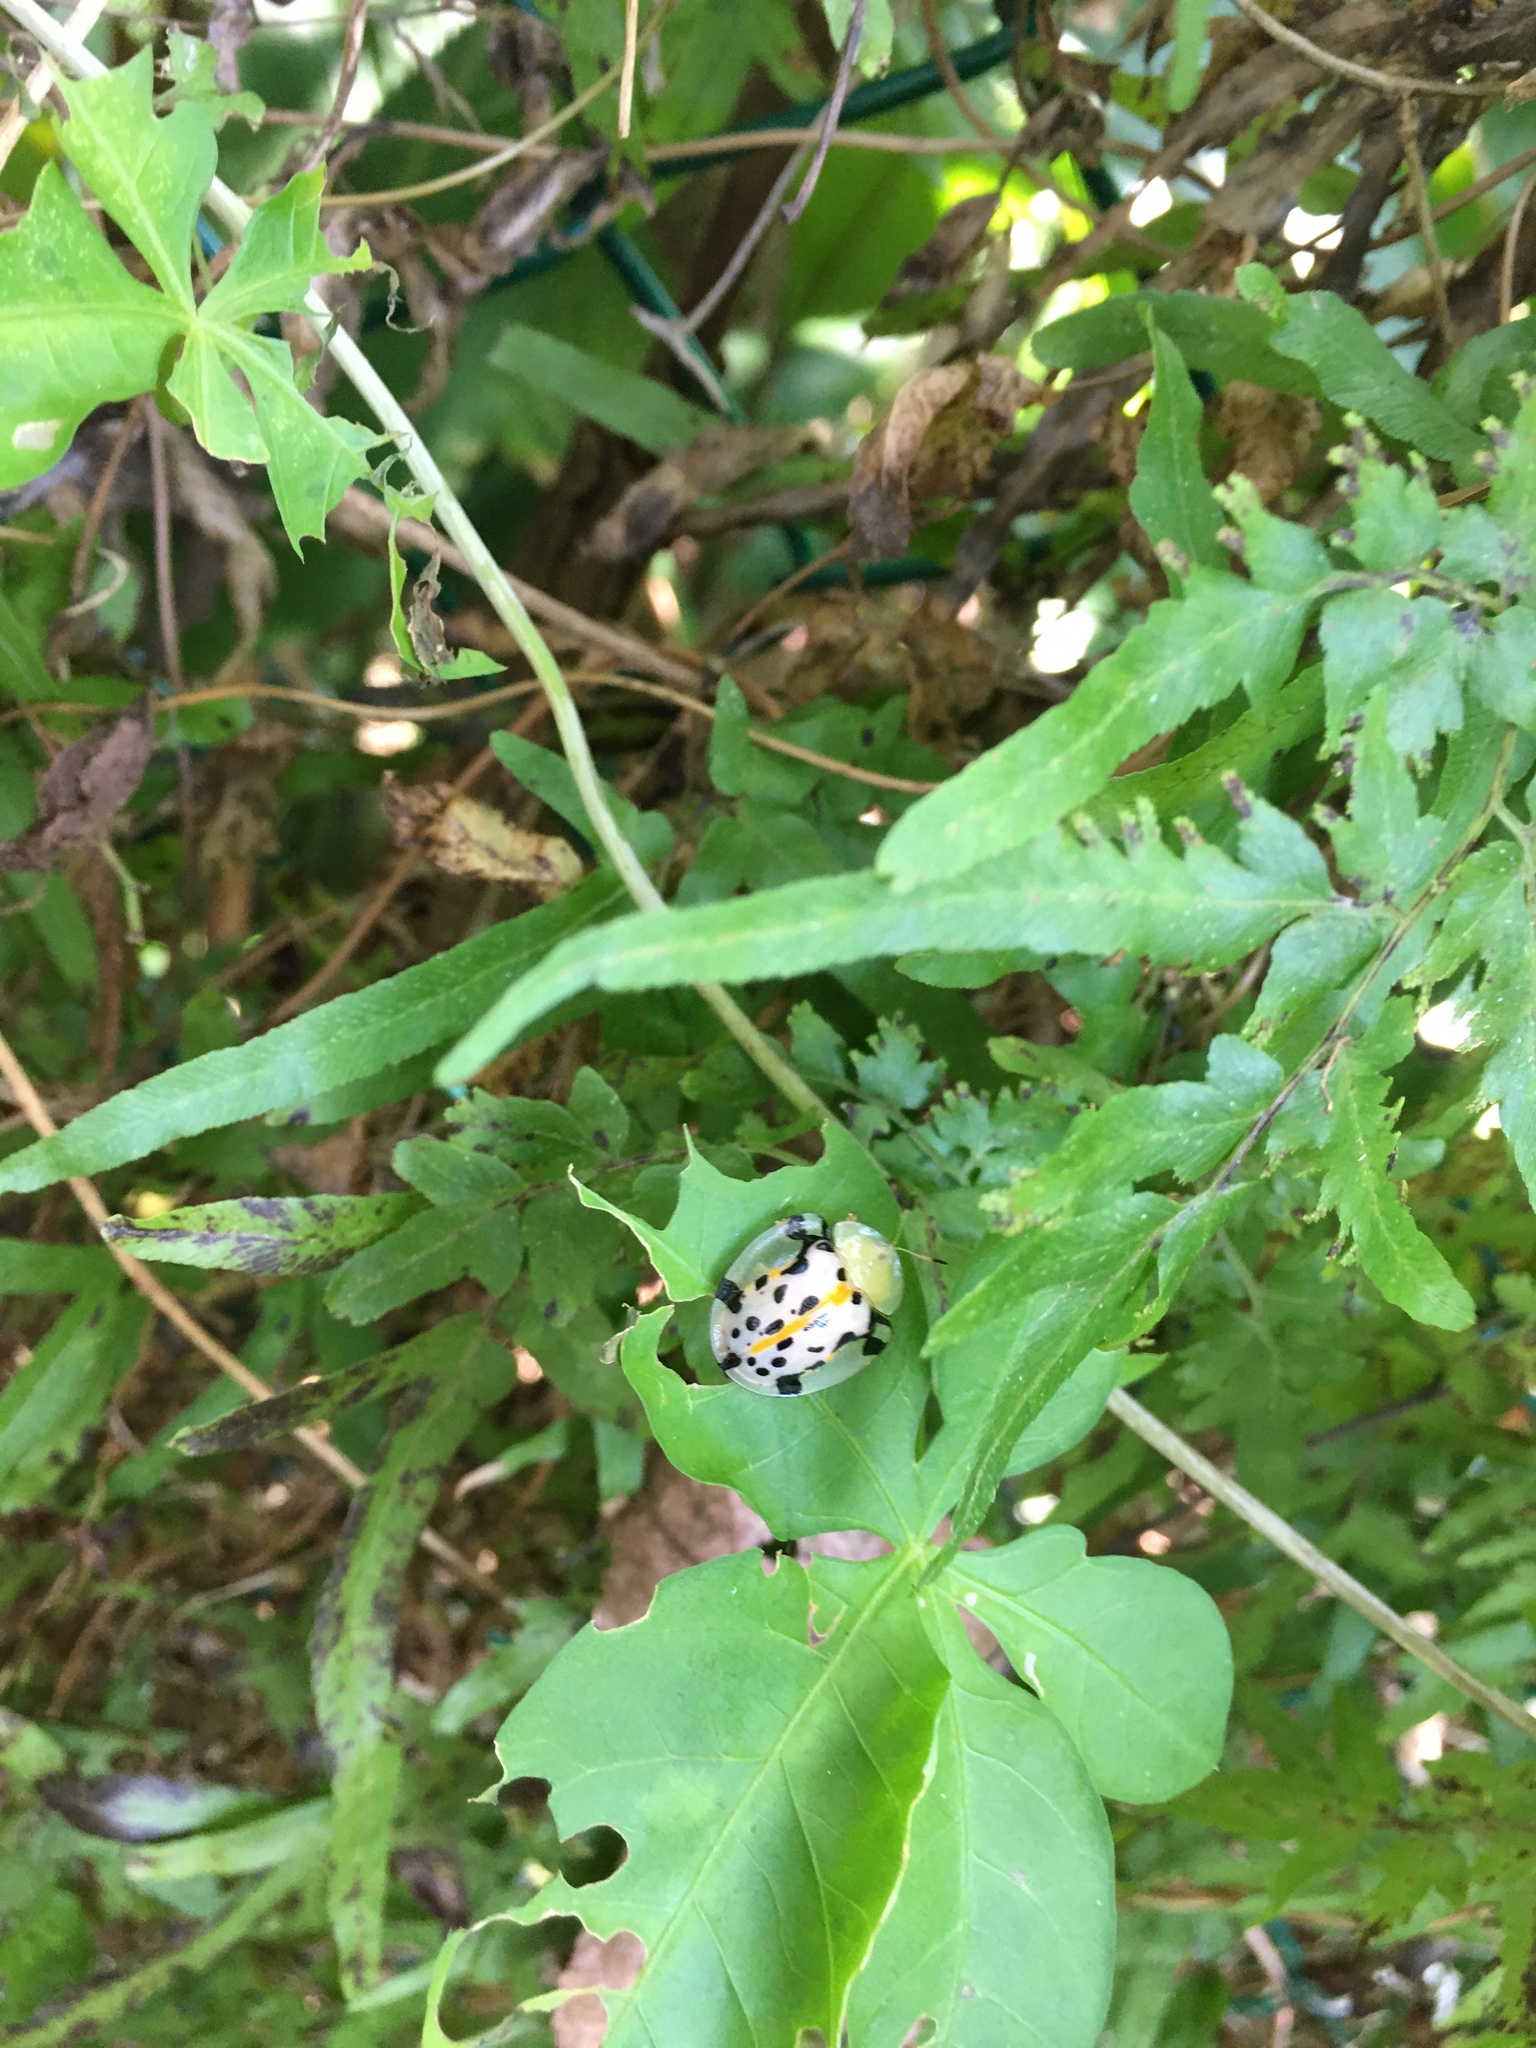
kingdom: Animalia
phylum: Arthropoda
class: Insecta
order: Coleoptera
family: Chrysomelidae
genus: Aspidimorpha
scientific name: Aspidimorpha miliaris
